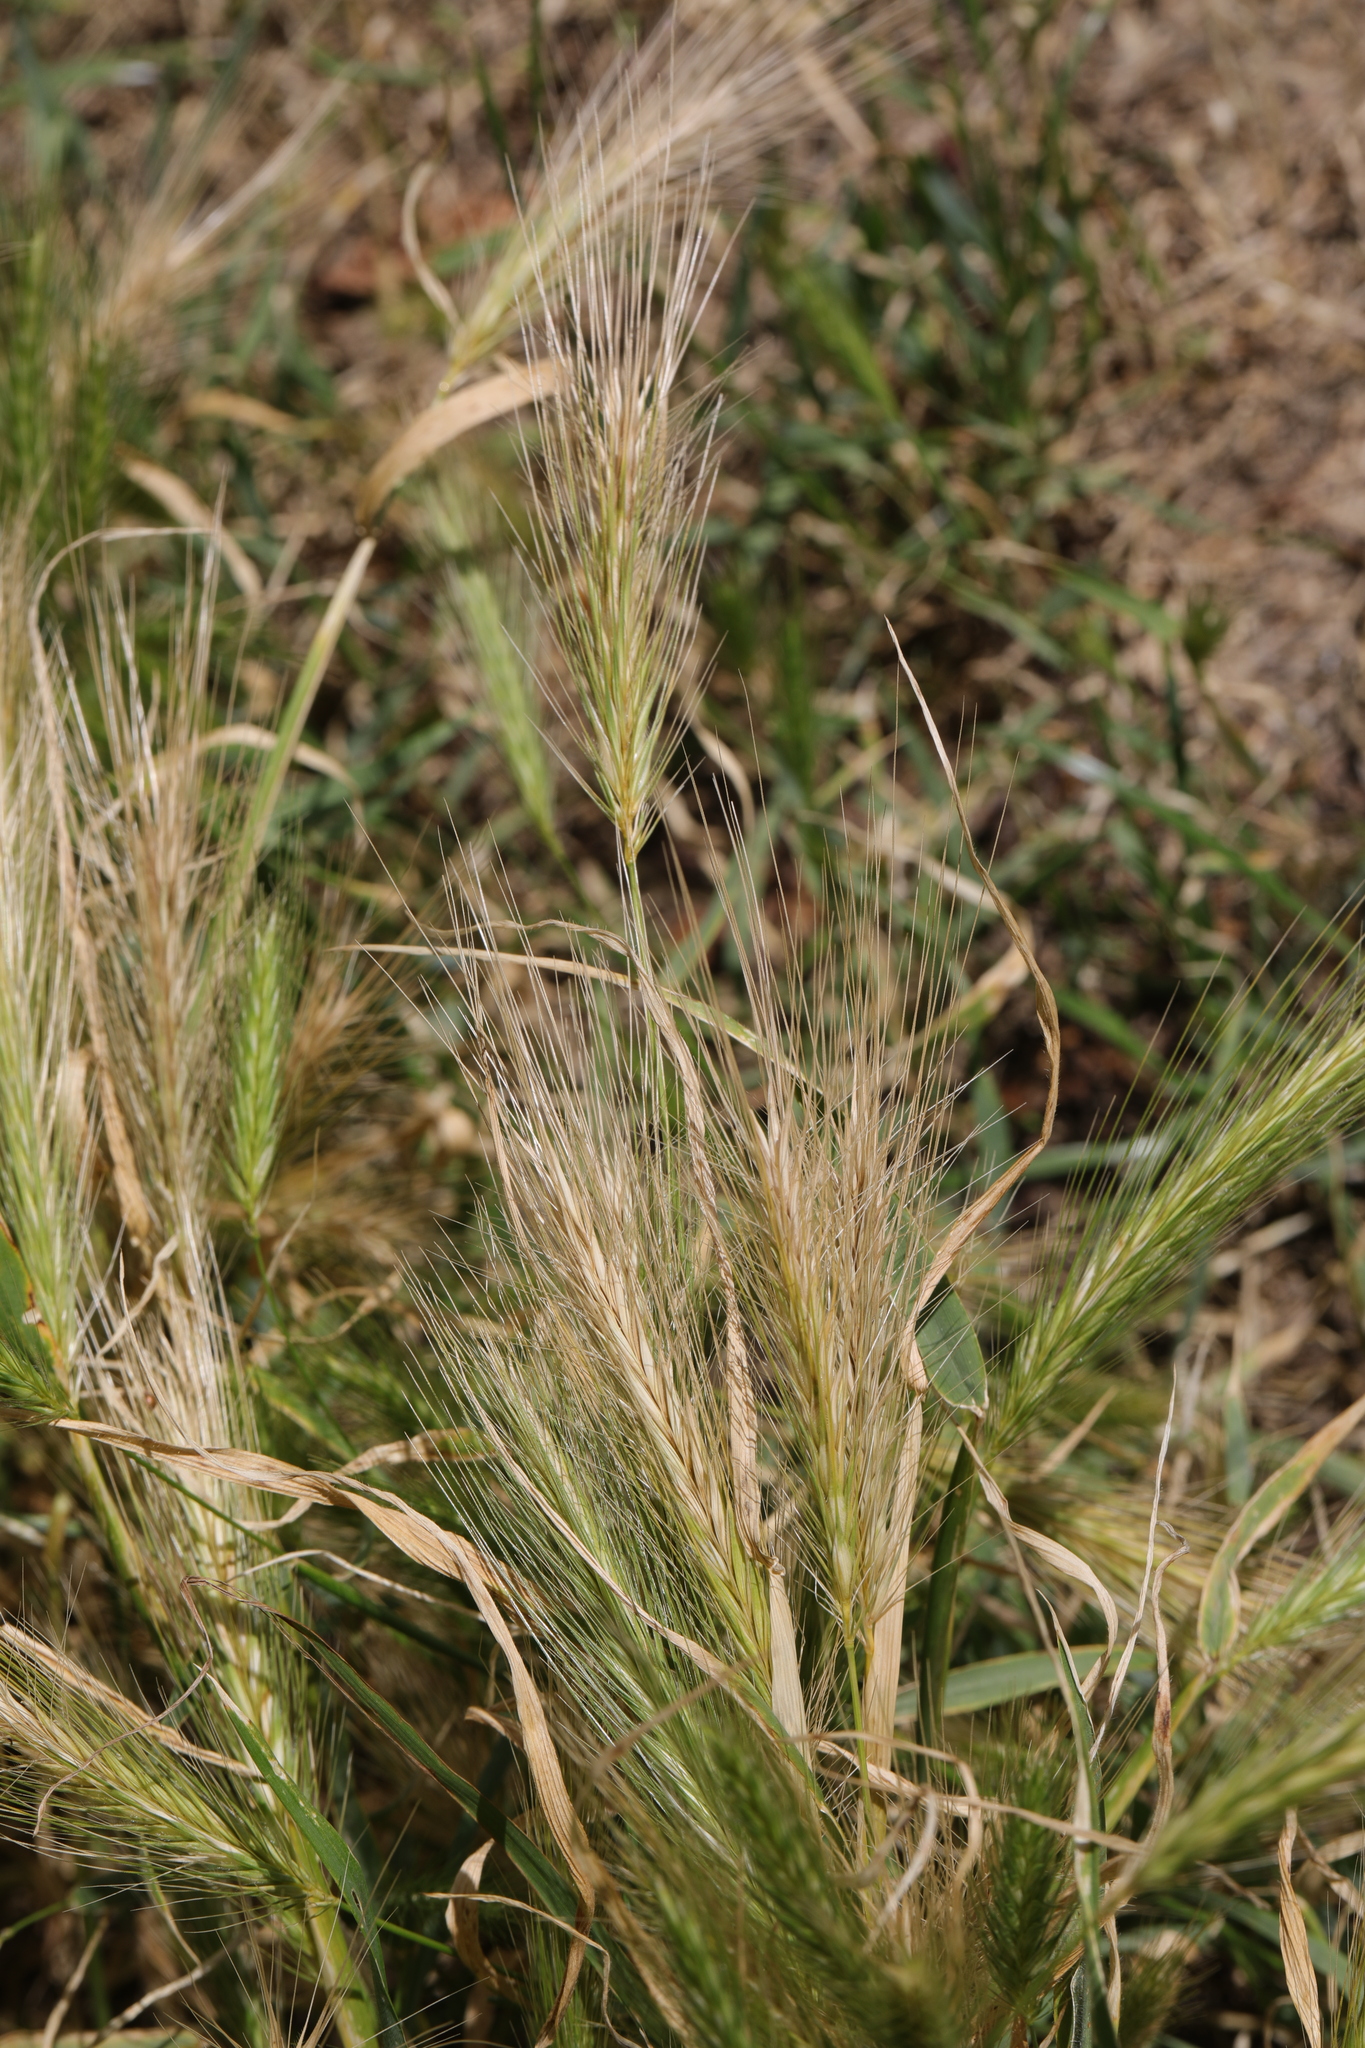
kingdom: Plantae
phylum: Tracheophyta
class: Liliopsida
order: Poales
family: Poaceae
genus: Hordeum
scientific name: Hordeum murinum
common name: Wall barley
